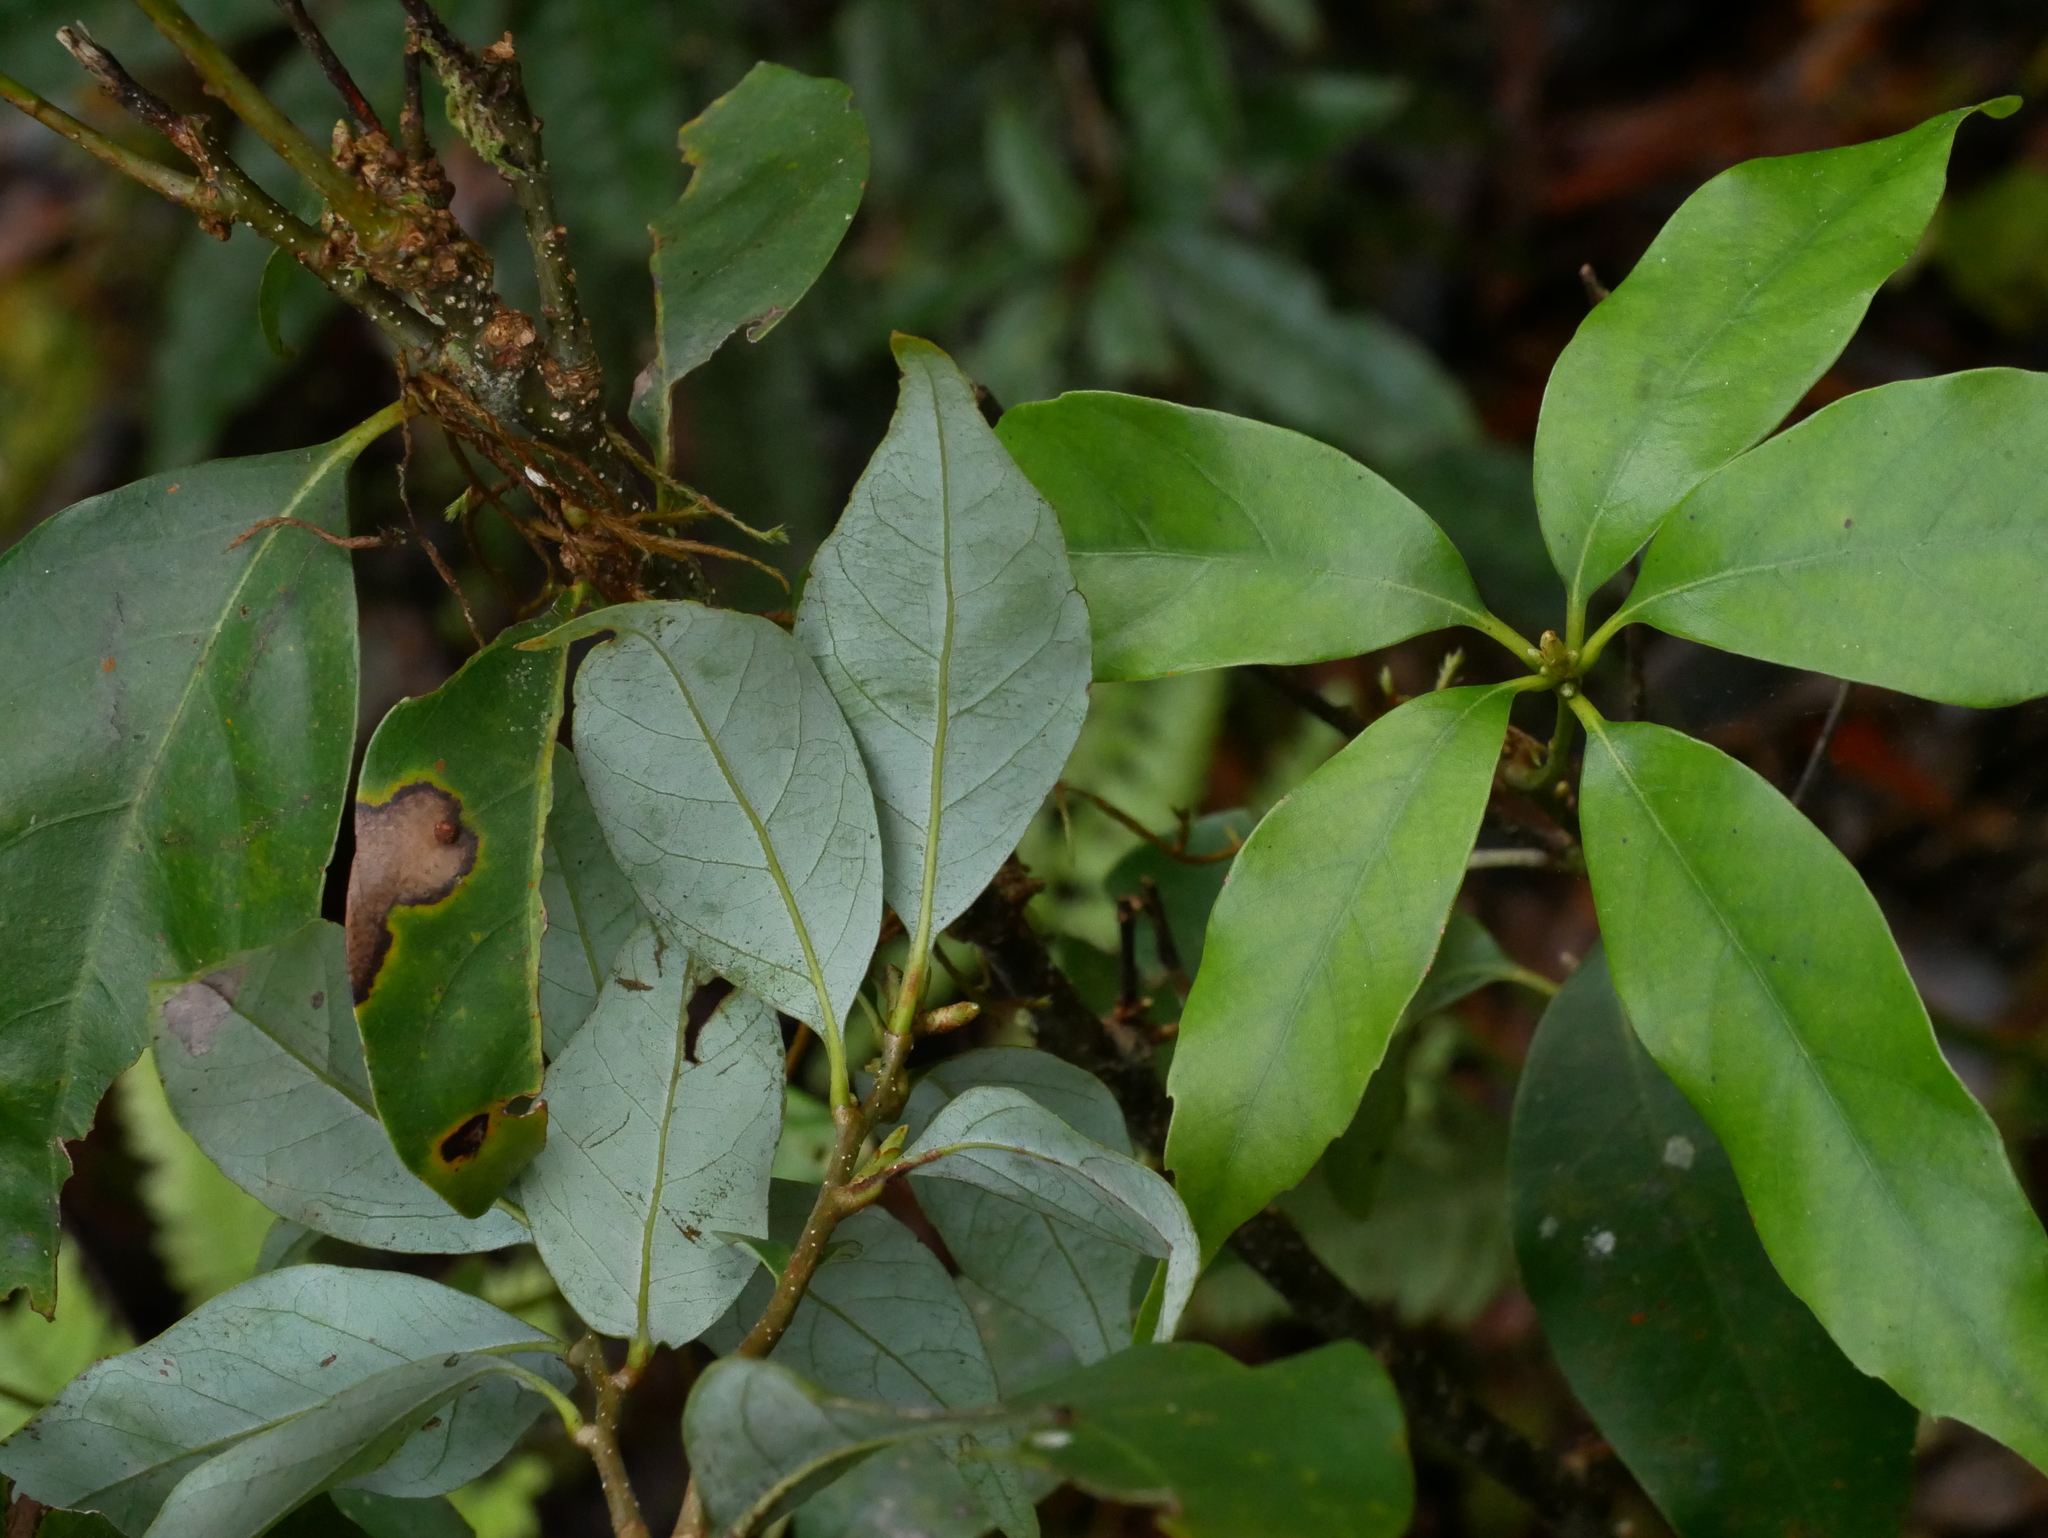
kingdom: Plantae
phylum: Tracheophyta
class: Magnoliopsida
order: Fagales
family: Fagaceae
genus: Quercus
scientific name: Quercus longinux
